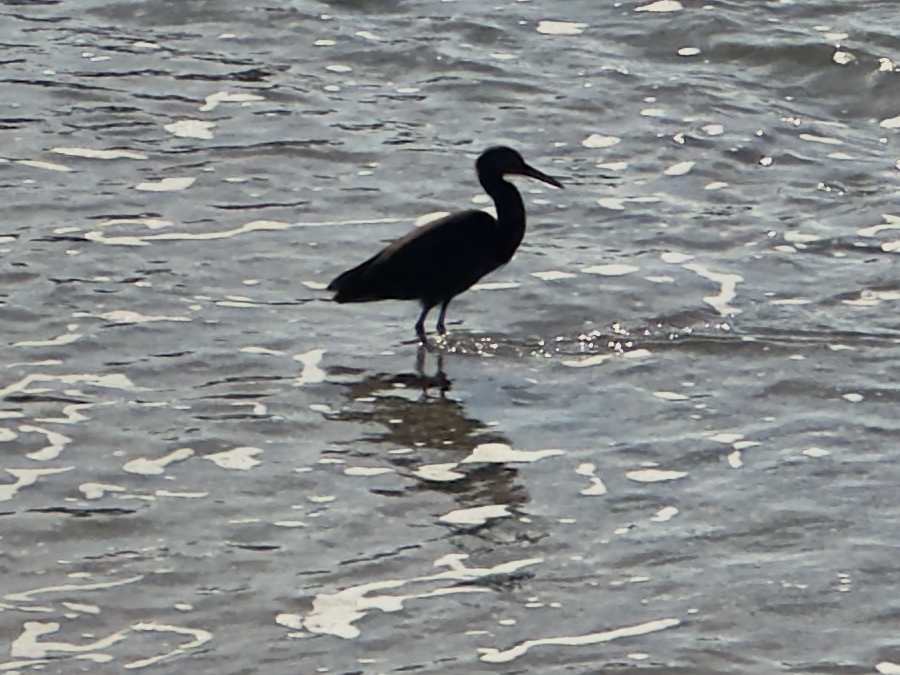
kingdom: Animalia
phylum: Chordata
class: Aves
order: Pelecaniformes
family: Ardeidae
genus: Egretta
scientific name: Egretta sacra
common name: Pacific reef heron
